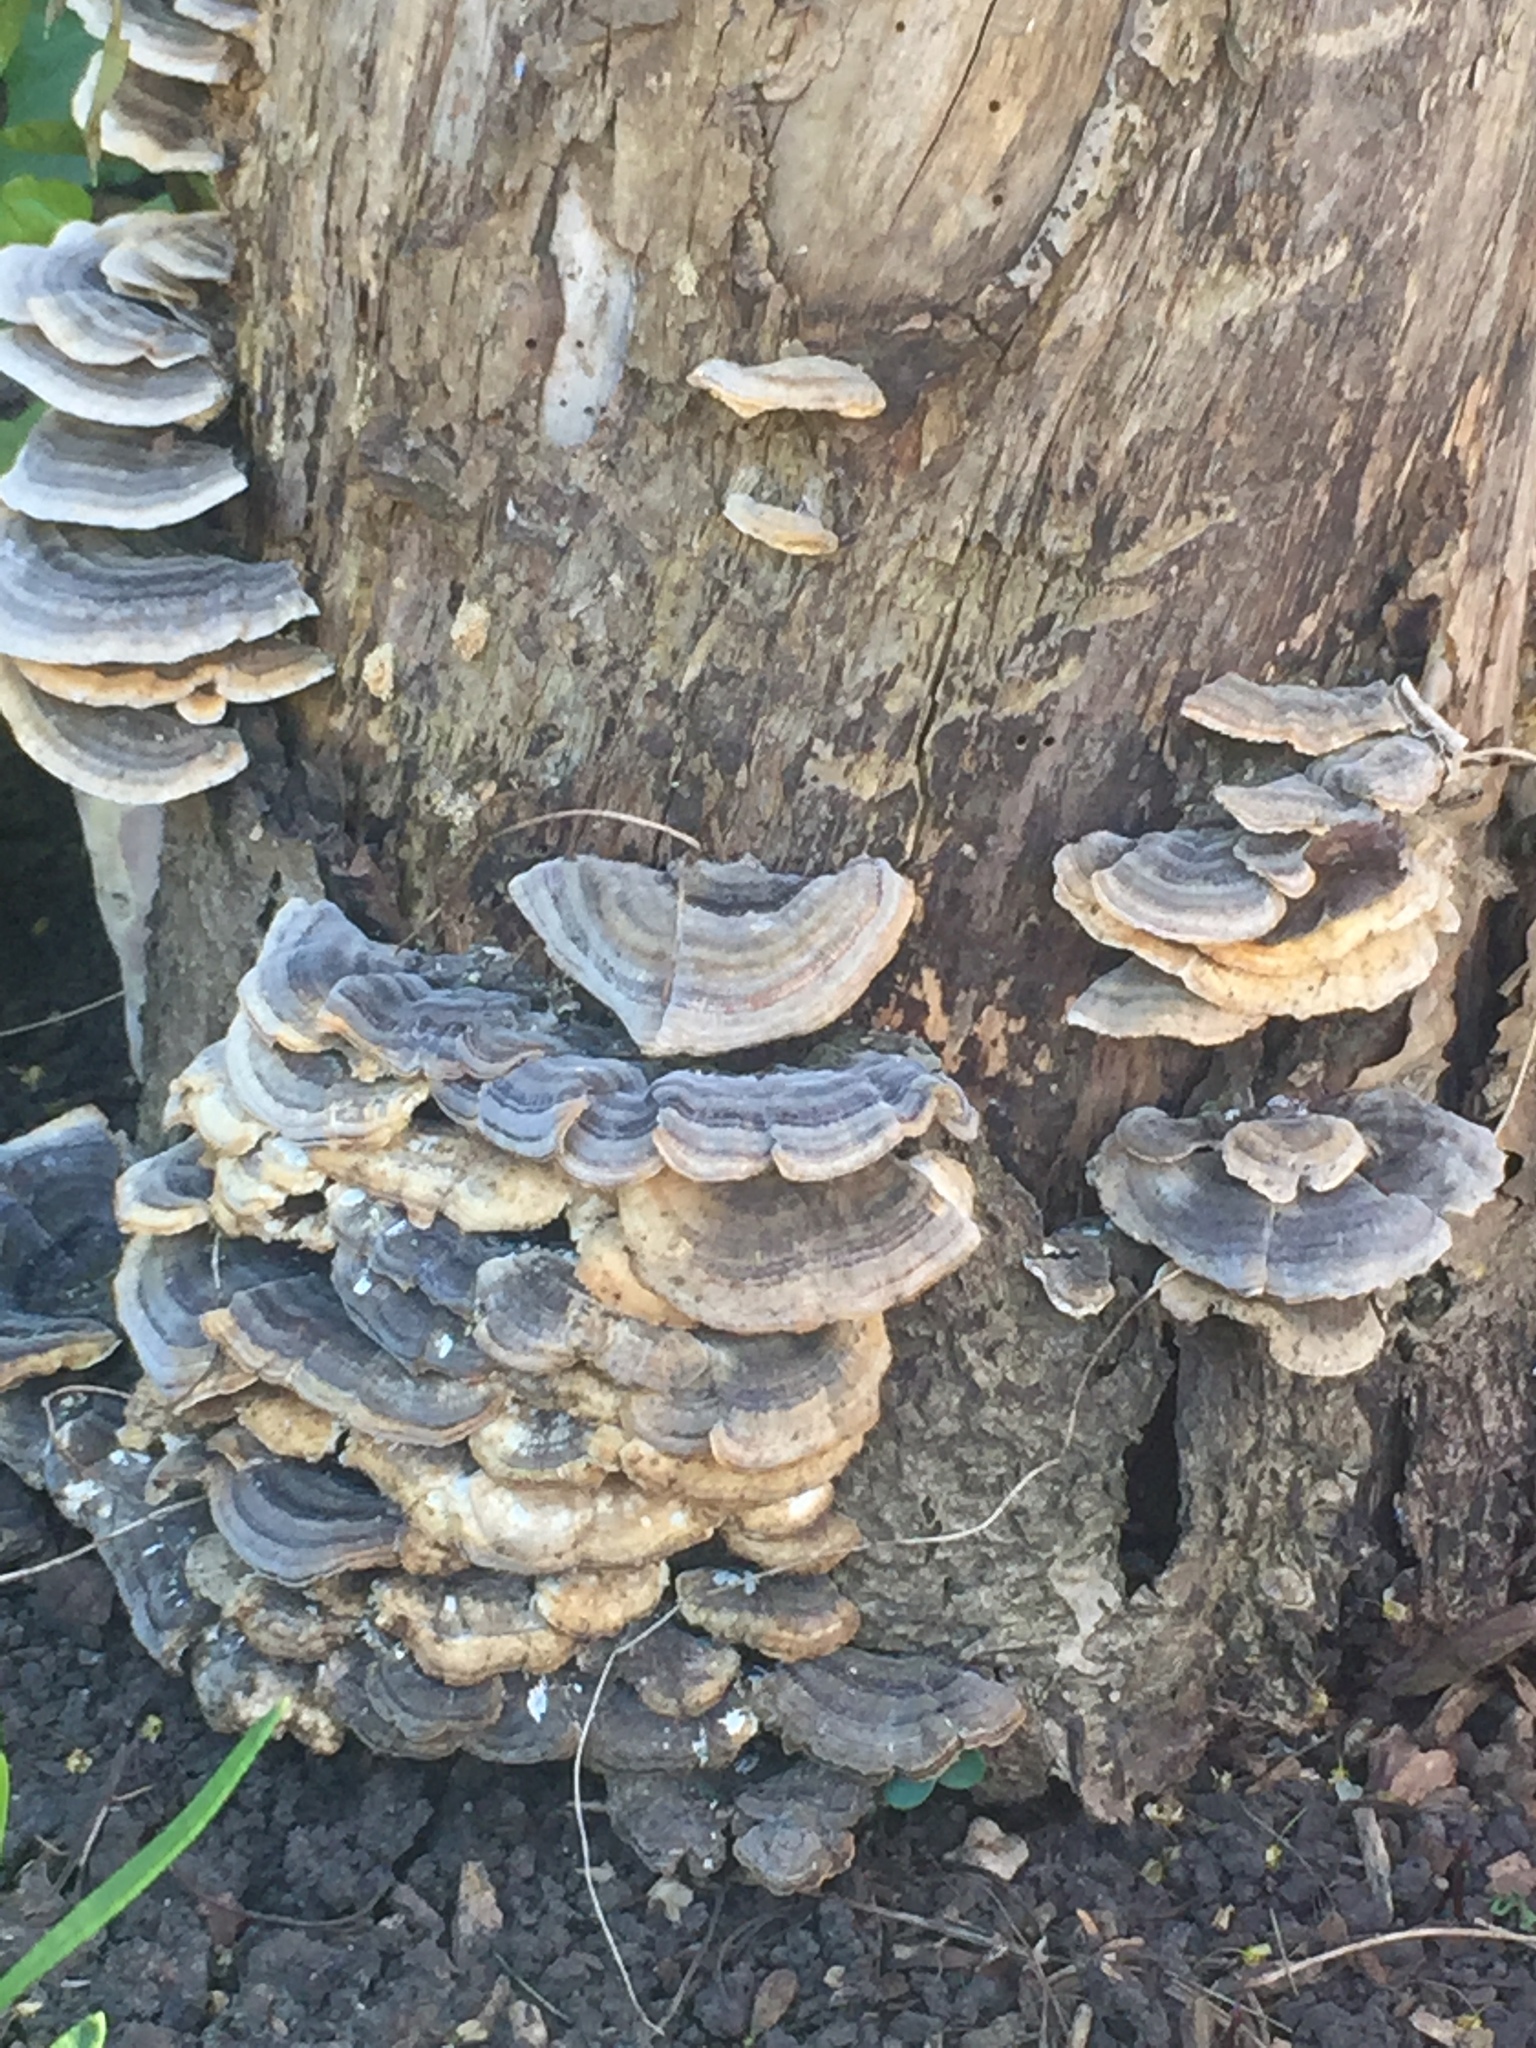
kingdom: Fungi
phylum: Basidiomycota
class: Agaricomycetes
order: Polyporales
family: Polyporaceae
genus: Trametes
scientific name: Trametes versicolor
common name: Turkeytail
